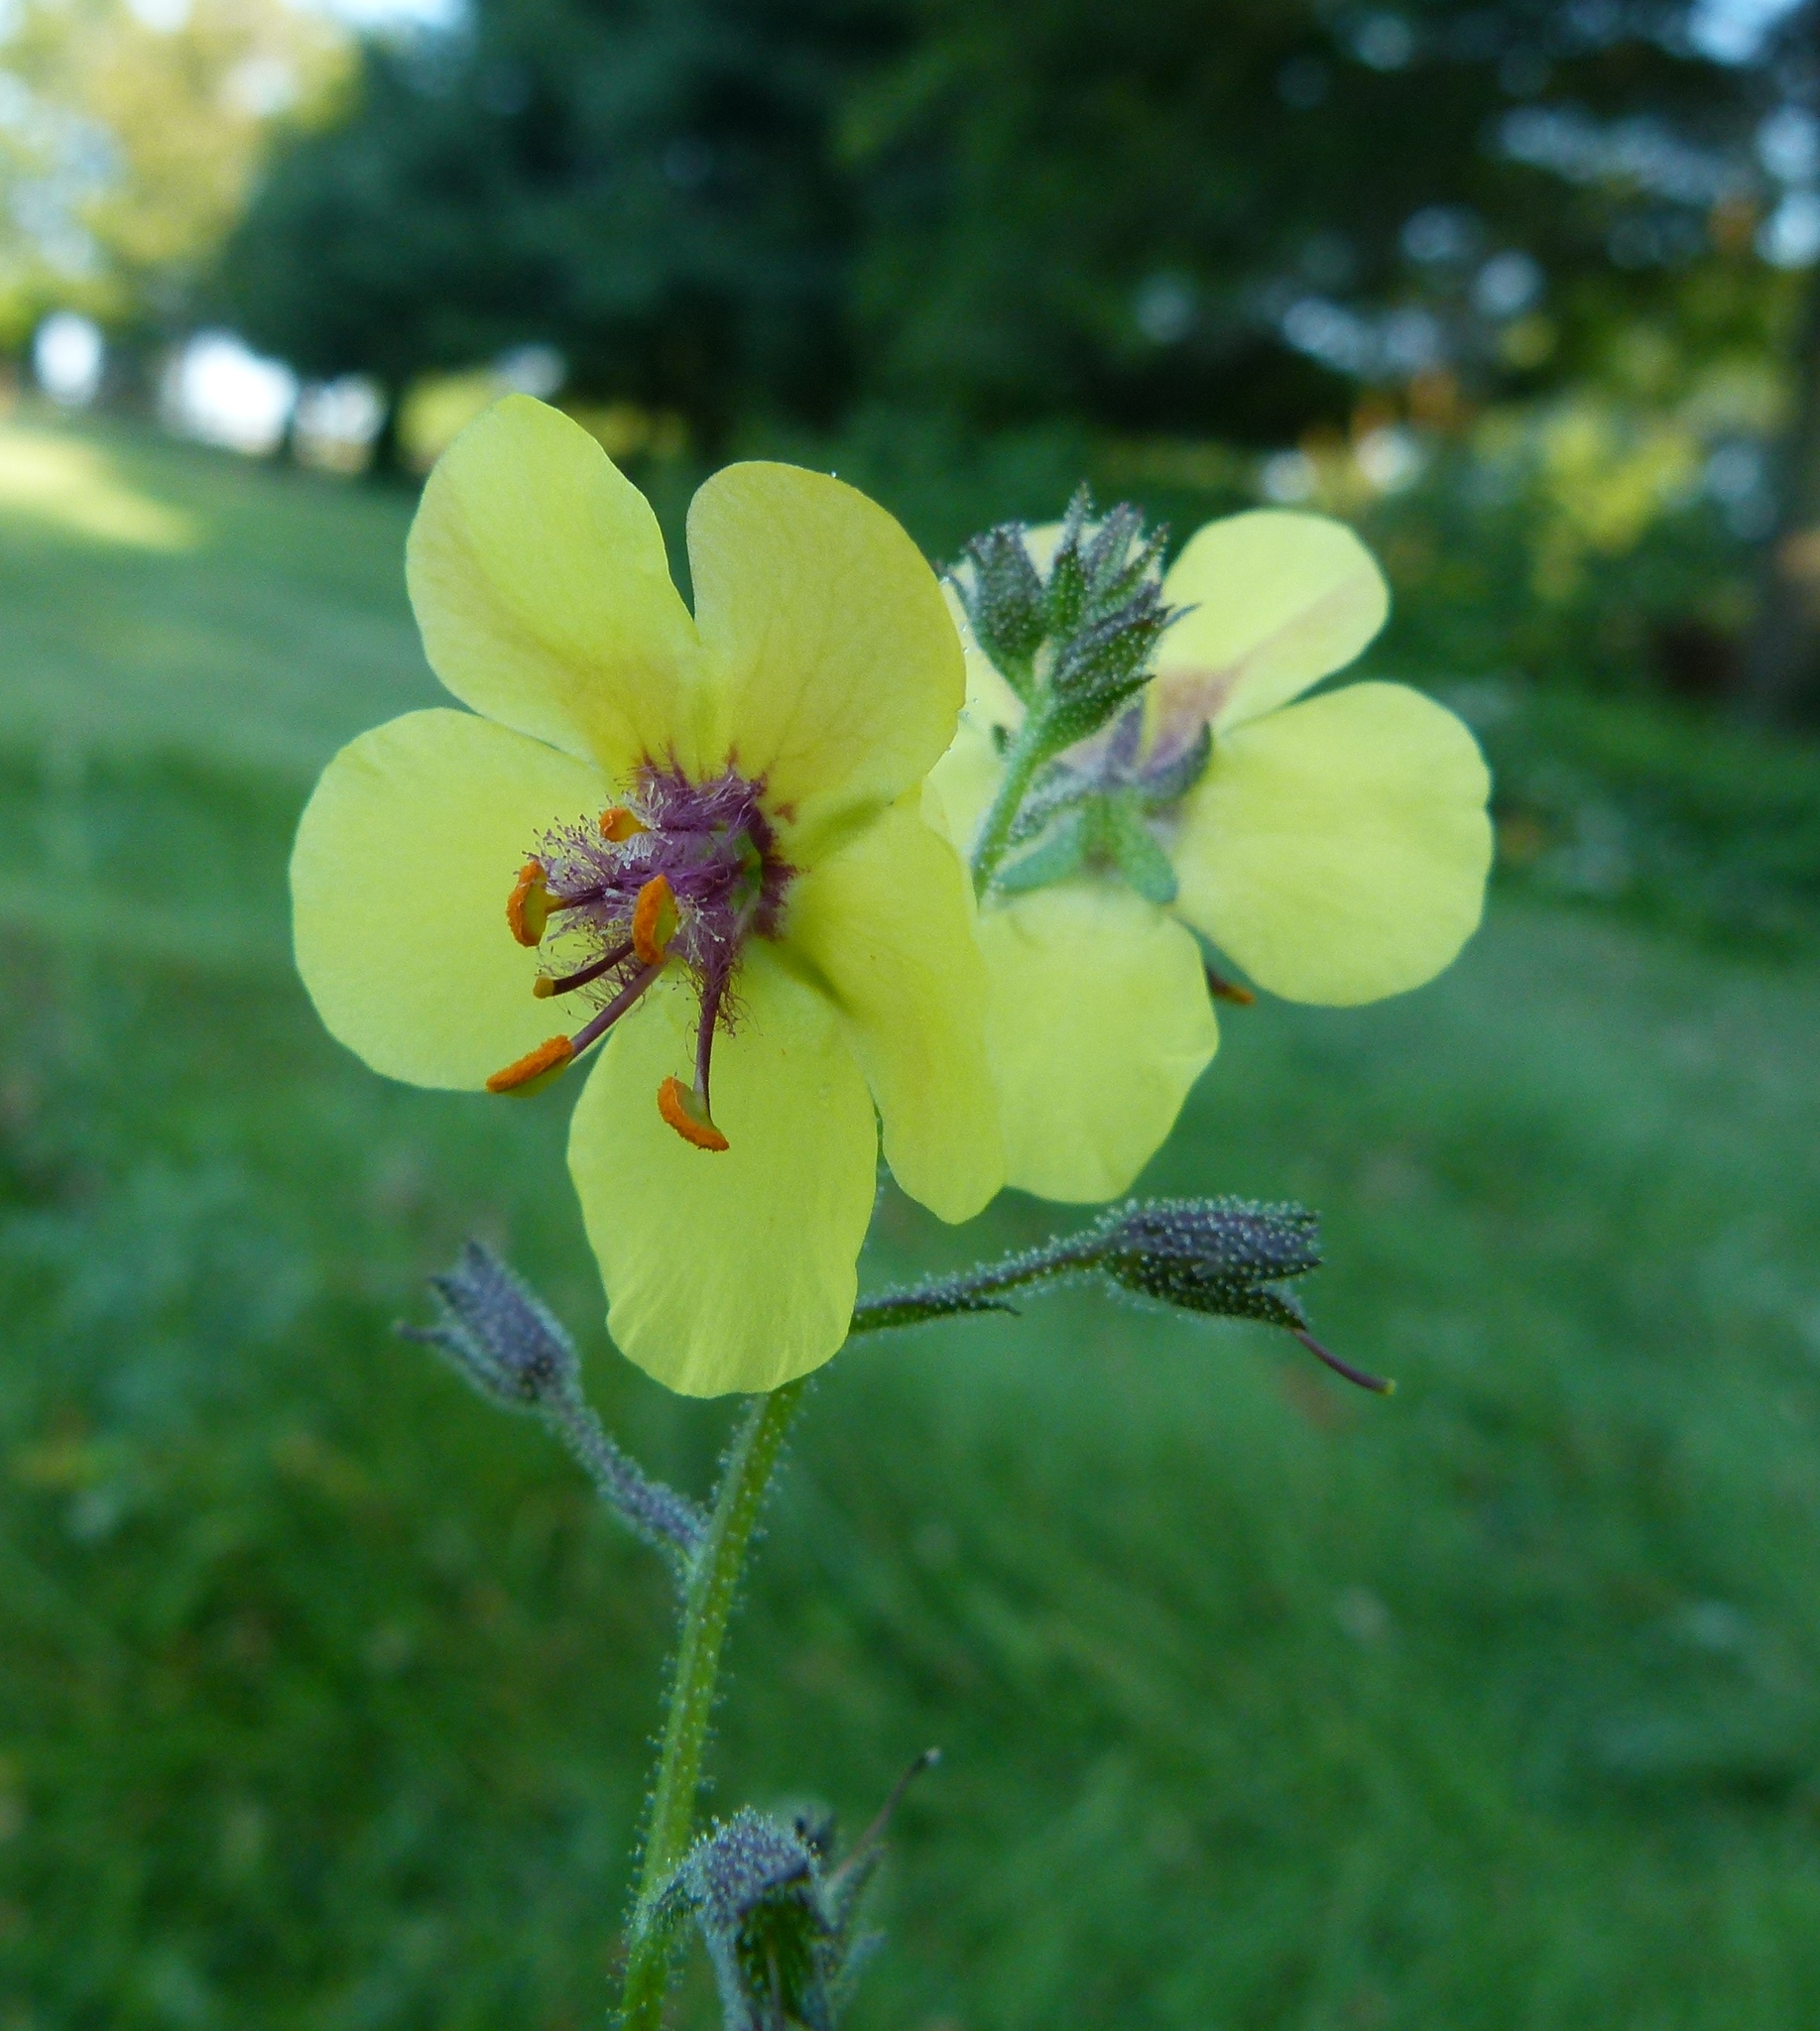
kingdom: Plantae
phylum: Tracheophyta
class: Magnoliopsida
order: Lamiales
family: Scrophulariaceae
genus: Verbascum
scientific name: Verbascum blattaria
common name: Moth mullein
